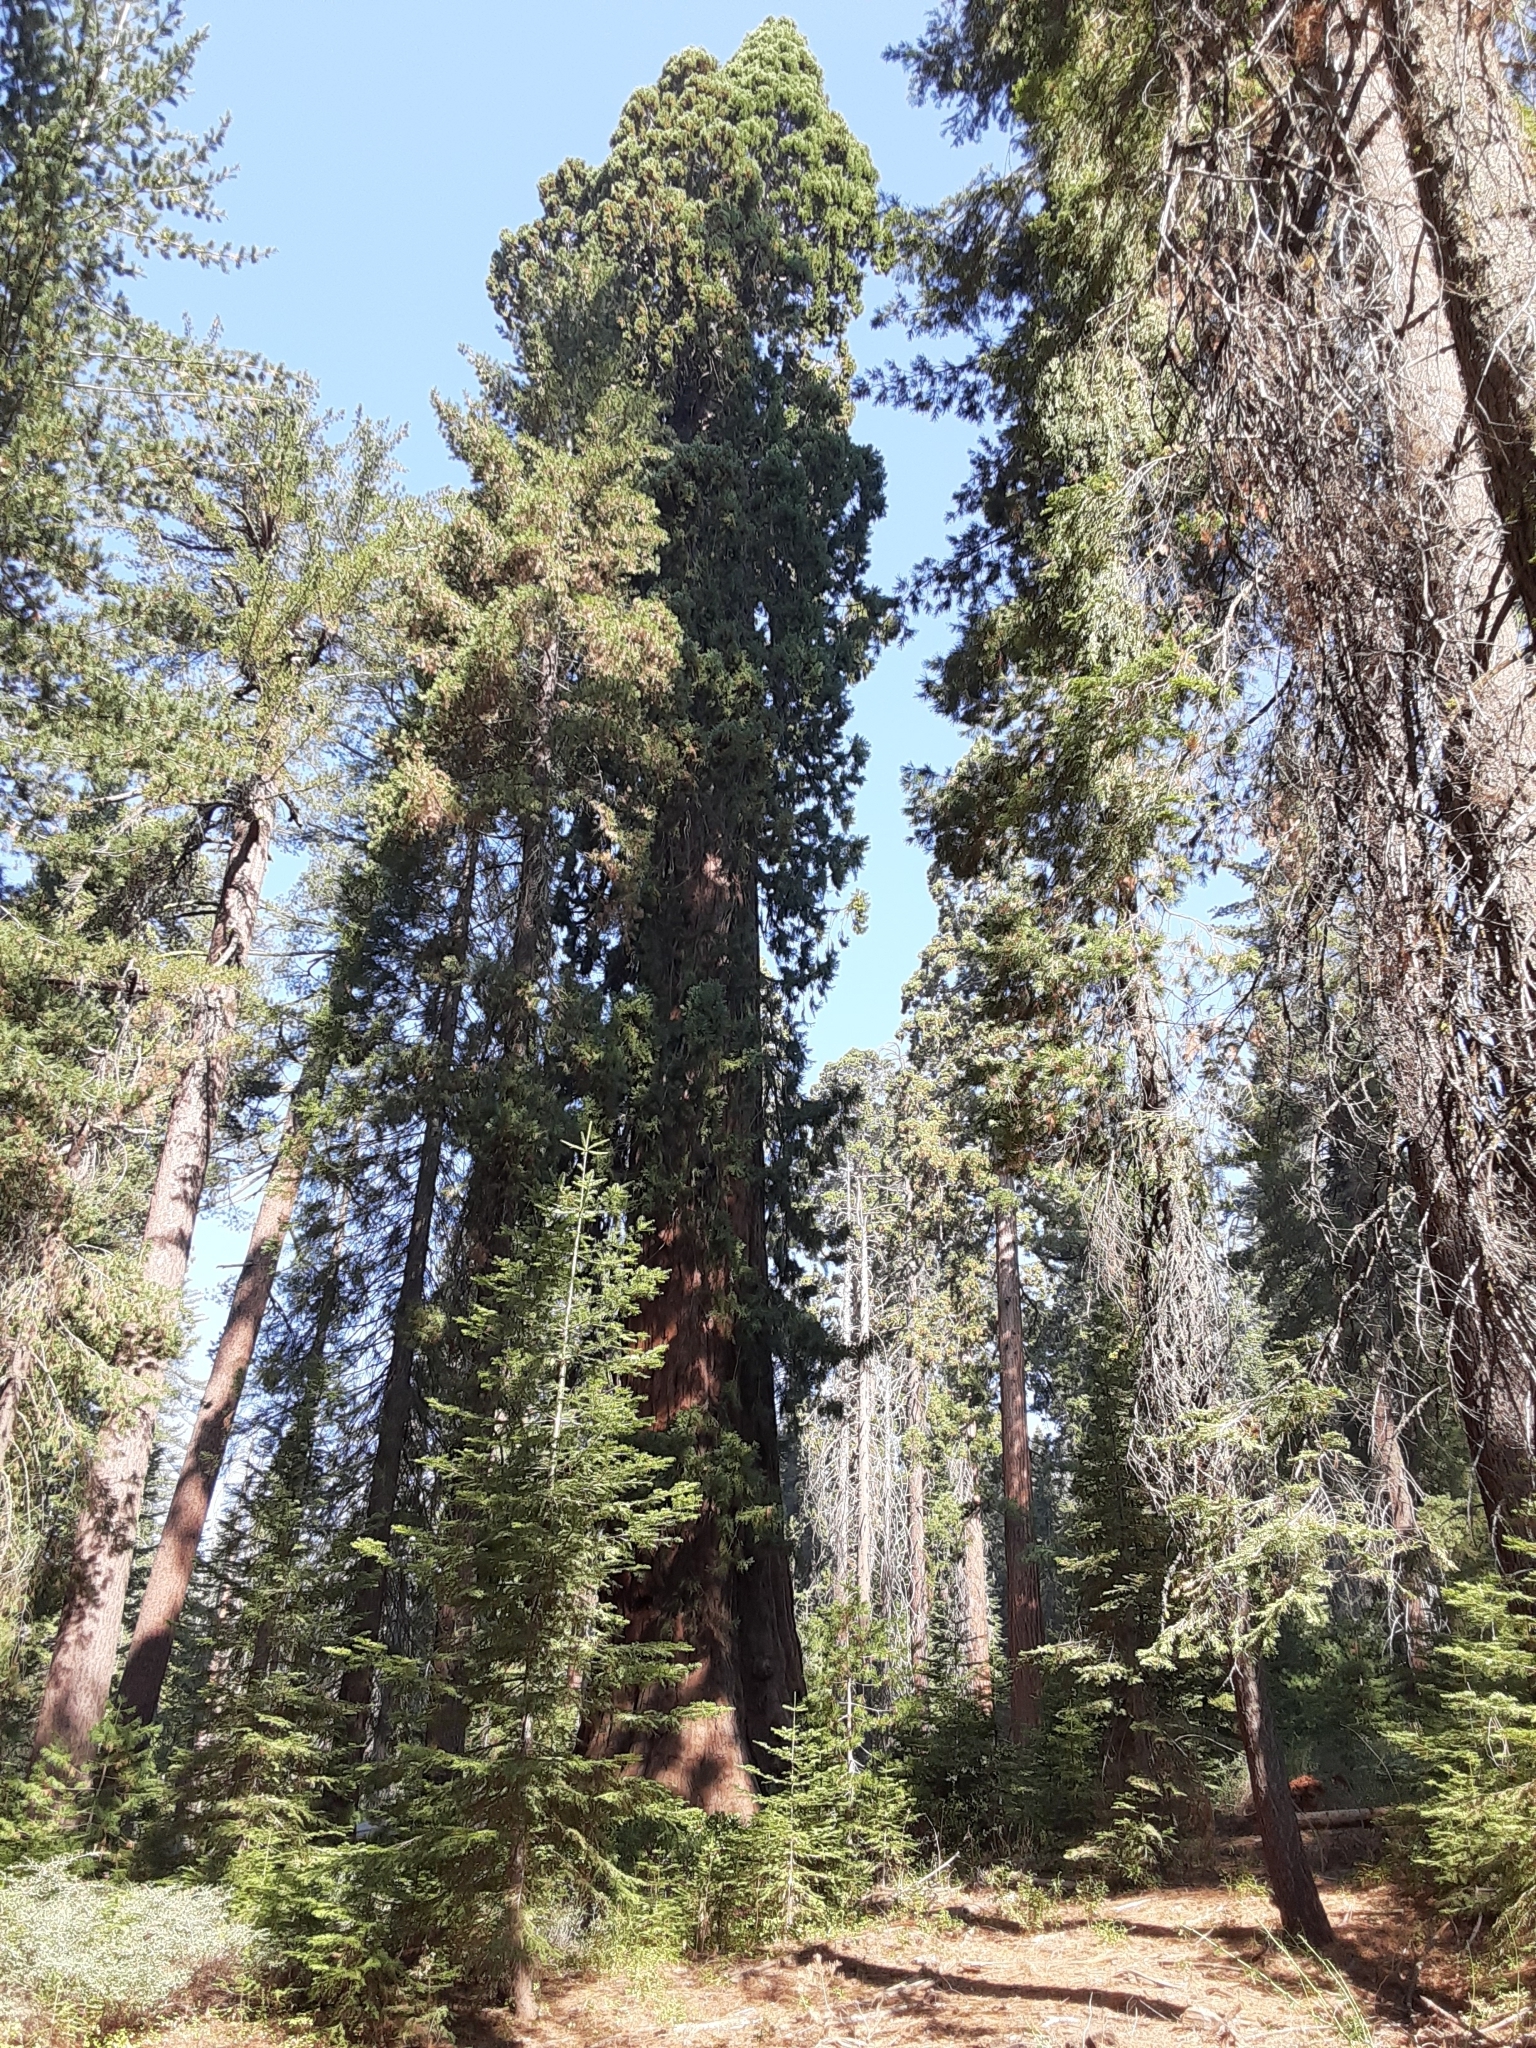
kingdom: Plantae
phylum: Tracheophyta
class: Pinopsida
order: Pinales
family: Cupressaceae
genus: Sequoiadendron
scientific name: Sequoiadendron giganteum
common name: Wellingtonia
